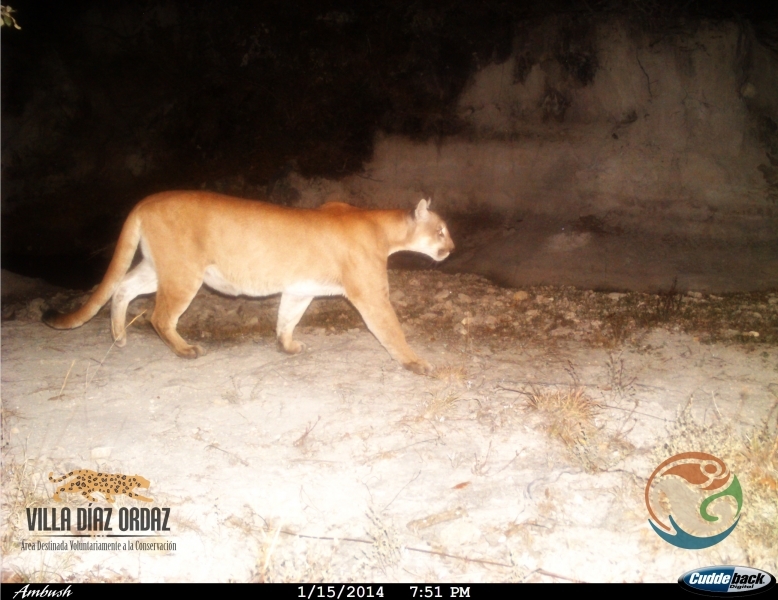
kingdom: Animalia
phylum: Chordata
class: Mammalia
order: Carnivora
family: Felidae
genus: Puma
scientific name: Puma concolor
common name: Puma
